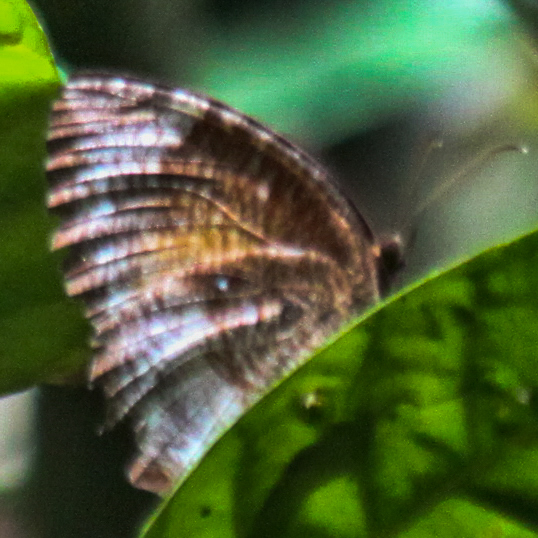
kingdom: Animalia
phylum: Arthropoda
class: Insecta
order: Lepidoptera
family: Nymphalidae
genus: Elymnias
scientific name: Elymnias hypermnestra
